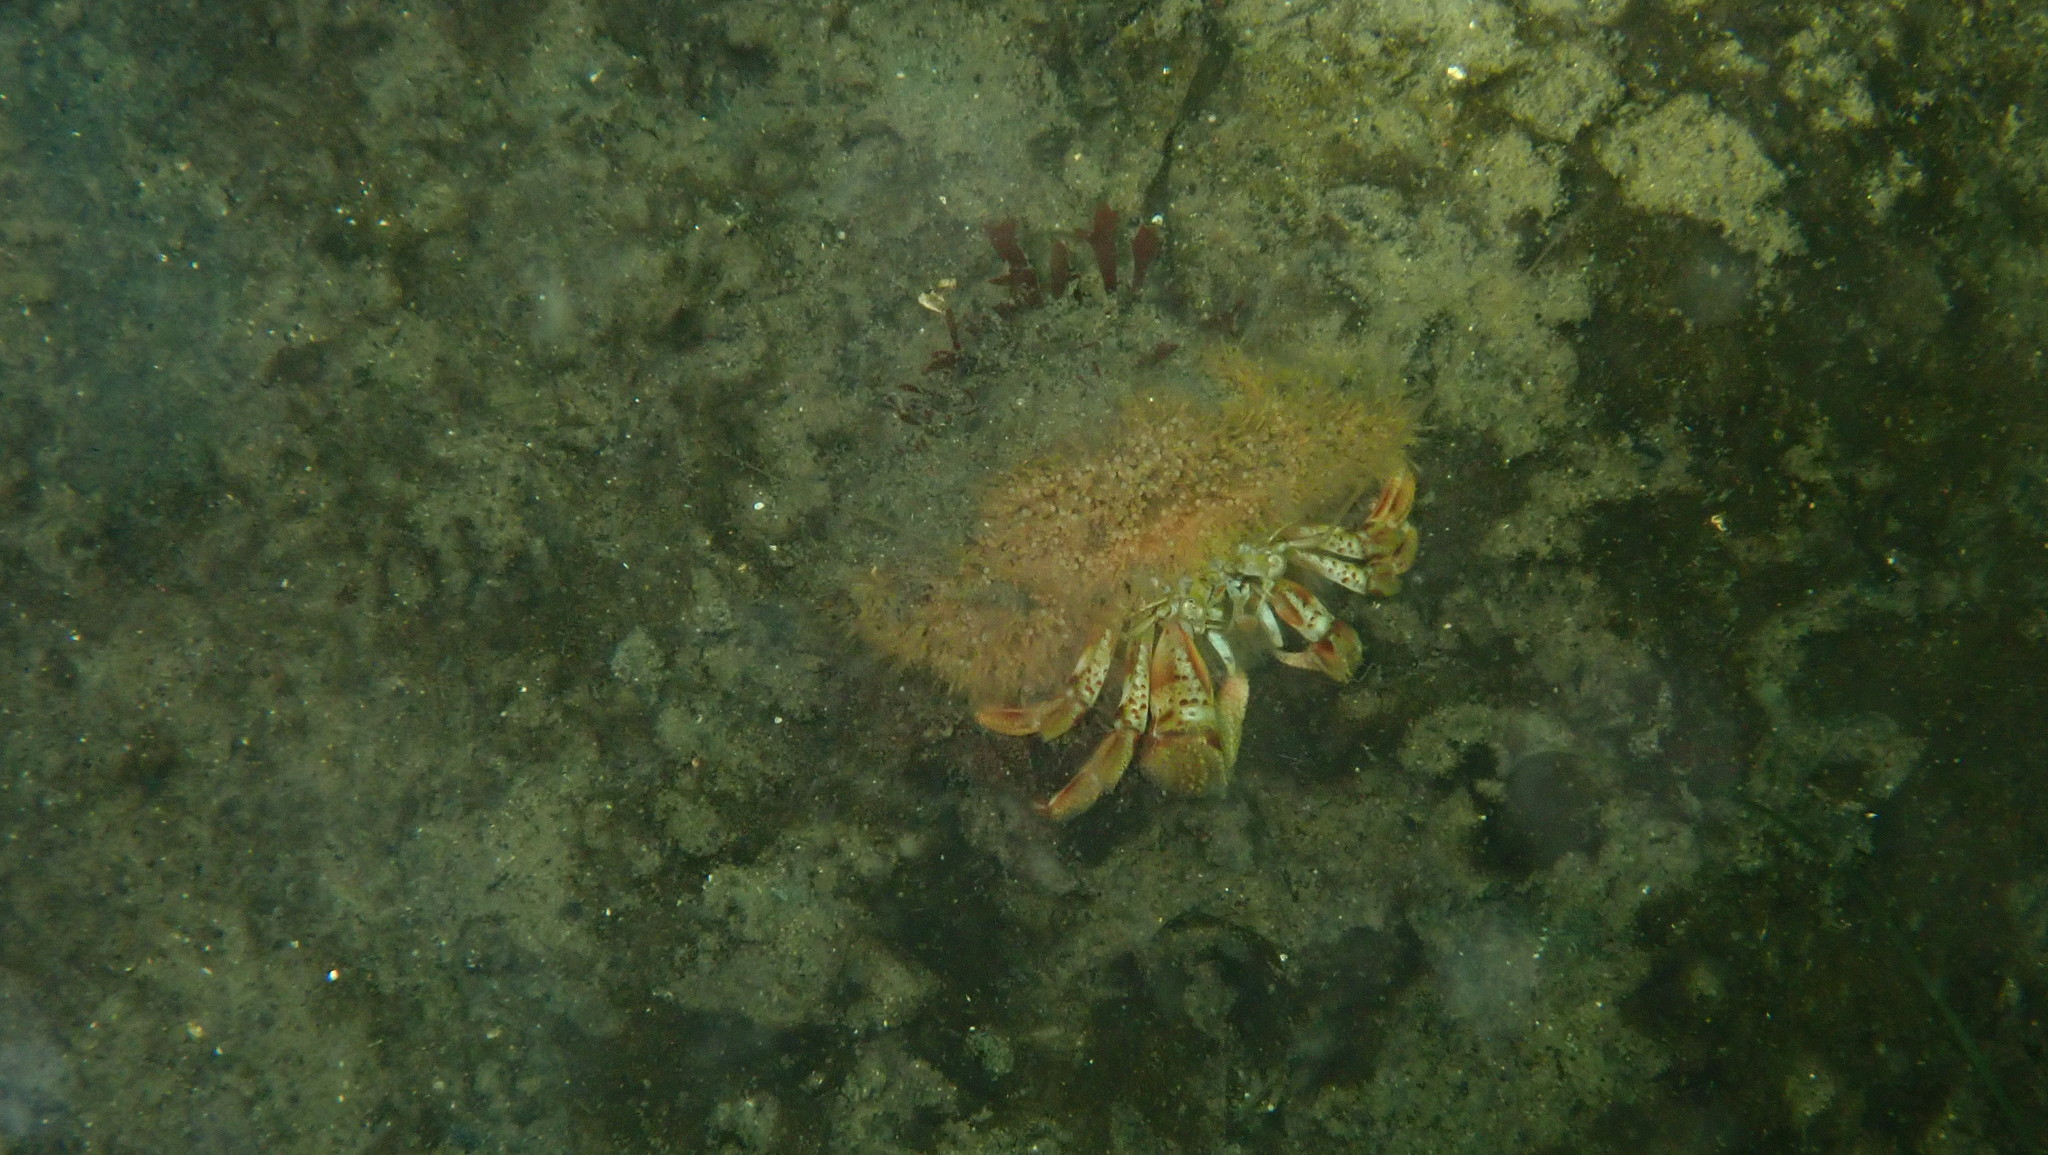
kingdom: Animalia
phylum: Arthropoda
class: Malacostraca
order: Decapoda
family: Paguridae
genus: Pagurus
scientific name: Pagurus bernhardus
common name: Hermit crab
